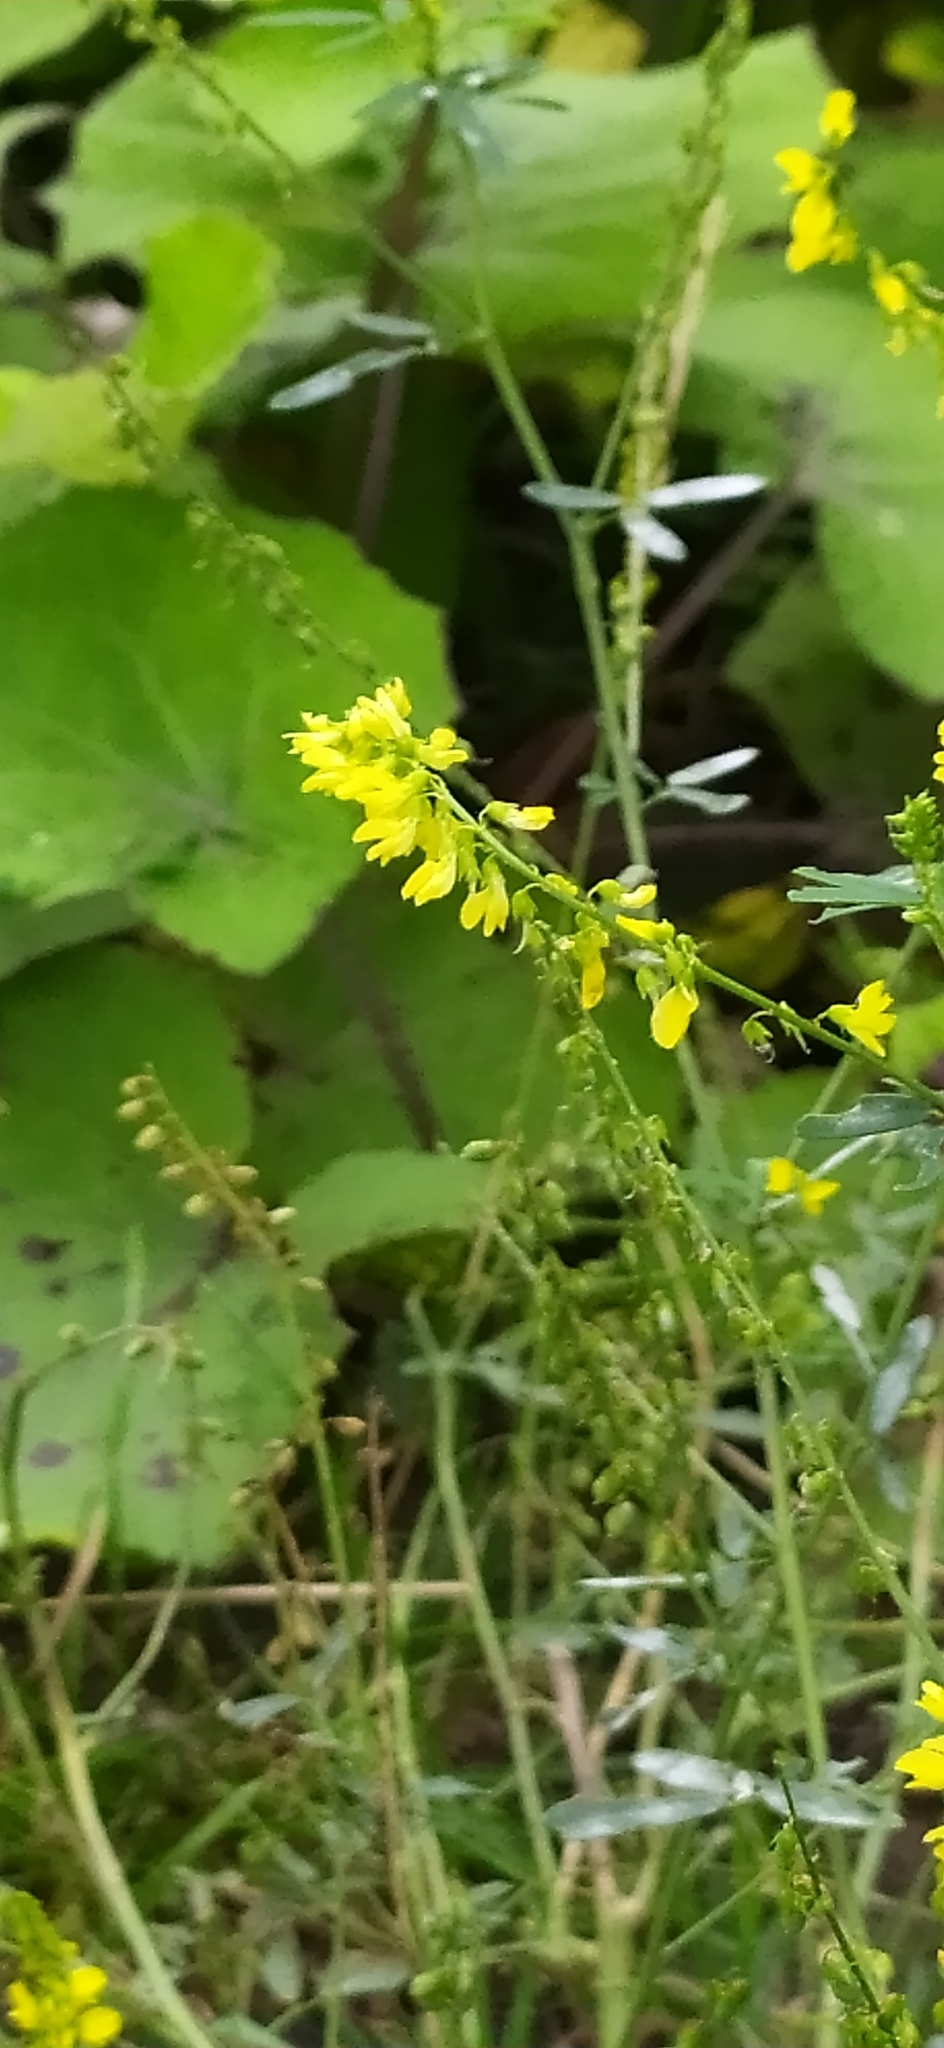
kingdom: Plantae
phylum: Tracheophyta
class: Magnoliopsida
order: Fabales
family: Fabaceae
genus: Melilotus
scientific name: Melilotus officinalis
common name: Sweetclover
